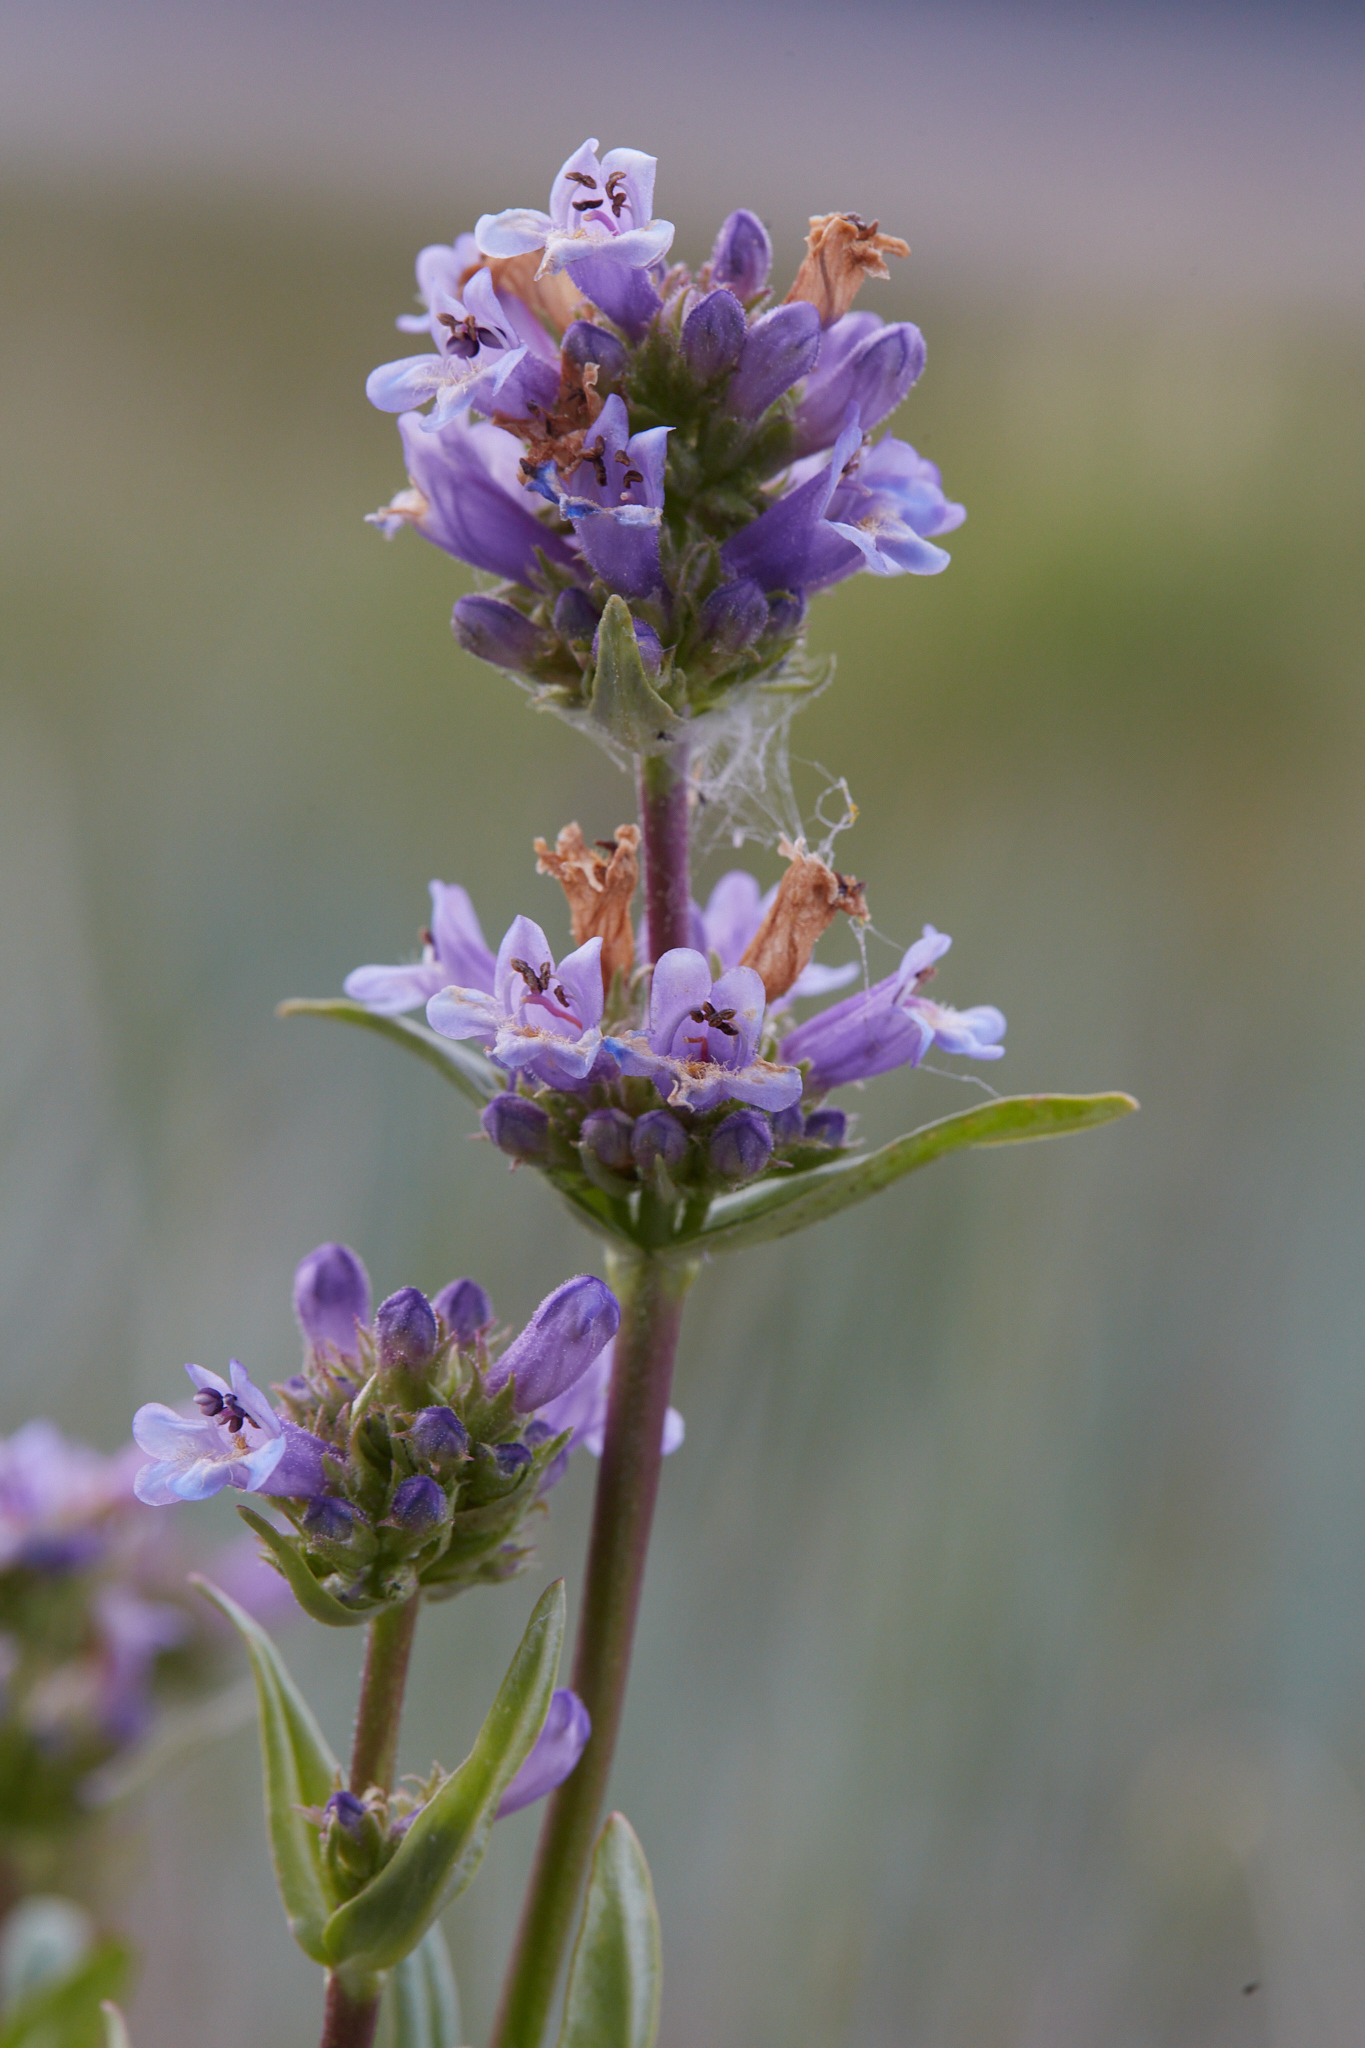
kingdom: Plantae
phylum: Tracheophyta
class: Magnoliopsida
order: Lamiales
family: Plantaginaceae
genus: Penstemon
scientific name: Penstemon heterodoxus
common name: Sierran penstemon
